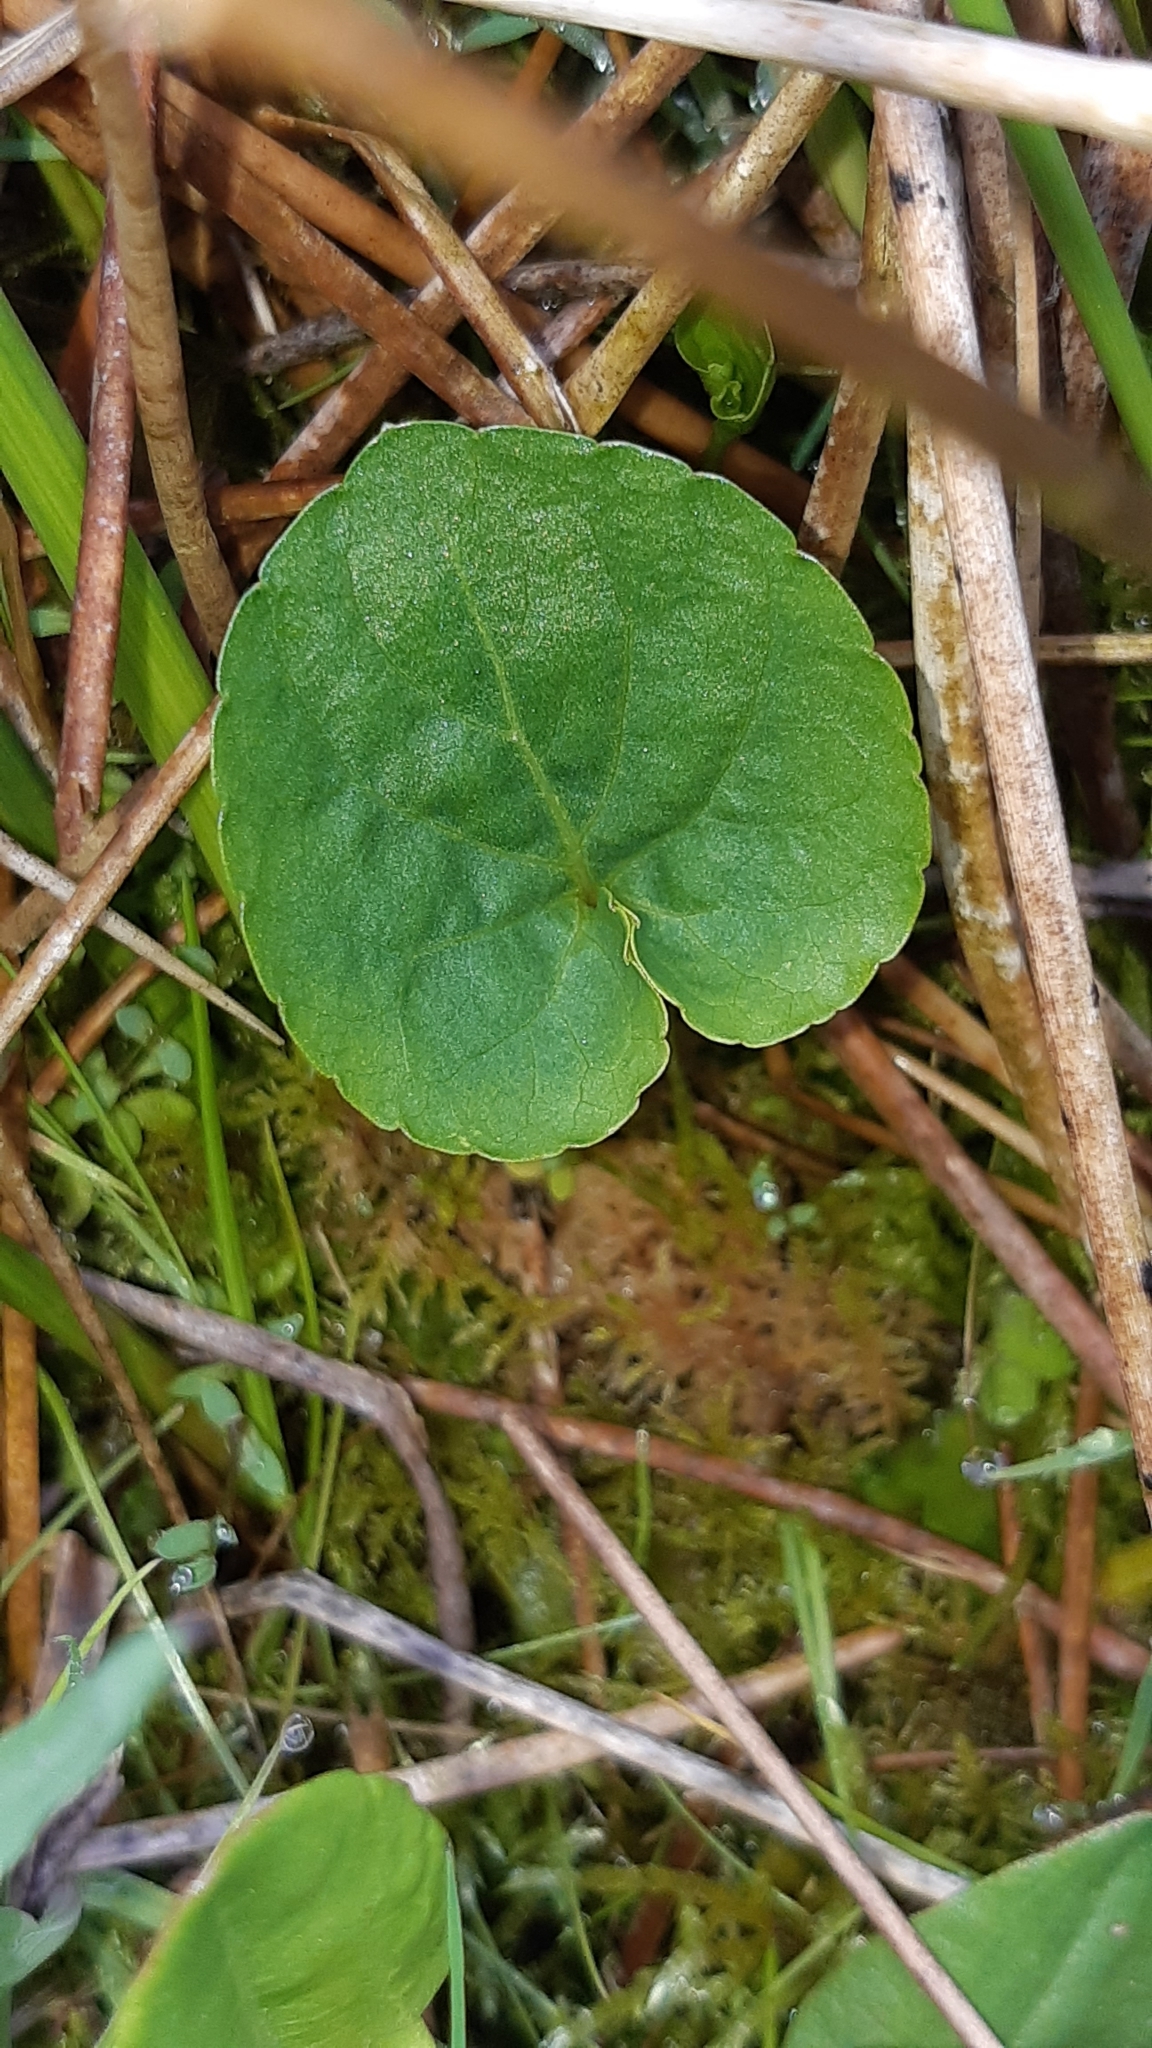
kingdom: Plantae
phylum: Tracheophyta
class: Magnoliopsida
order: Malpighiales
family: Violaceae
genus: Viola
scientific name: Viola palustris
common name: Marsh violet
